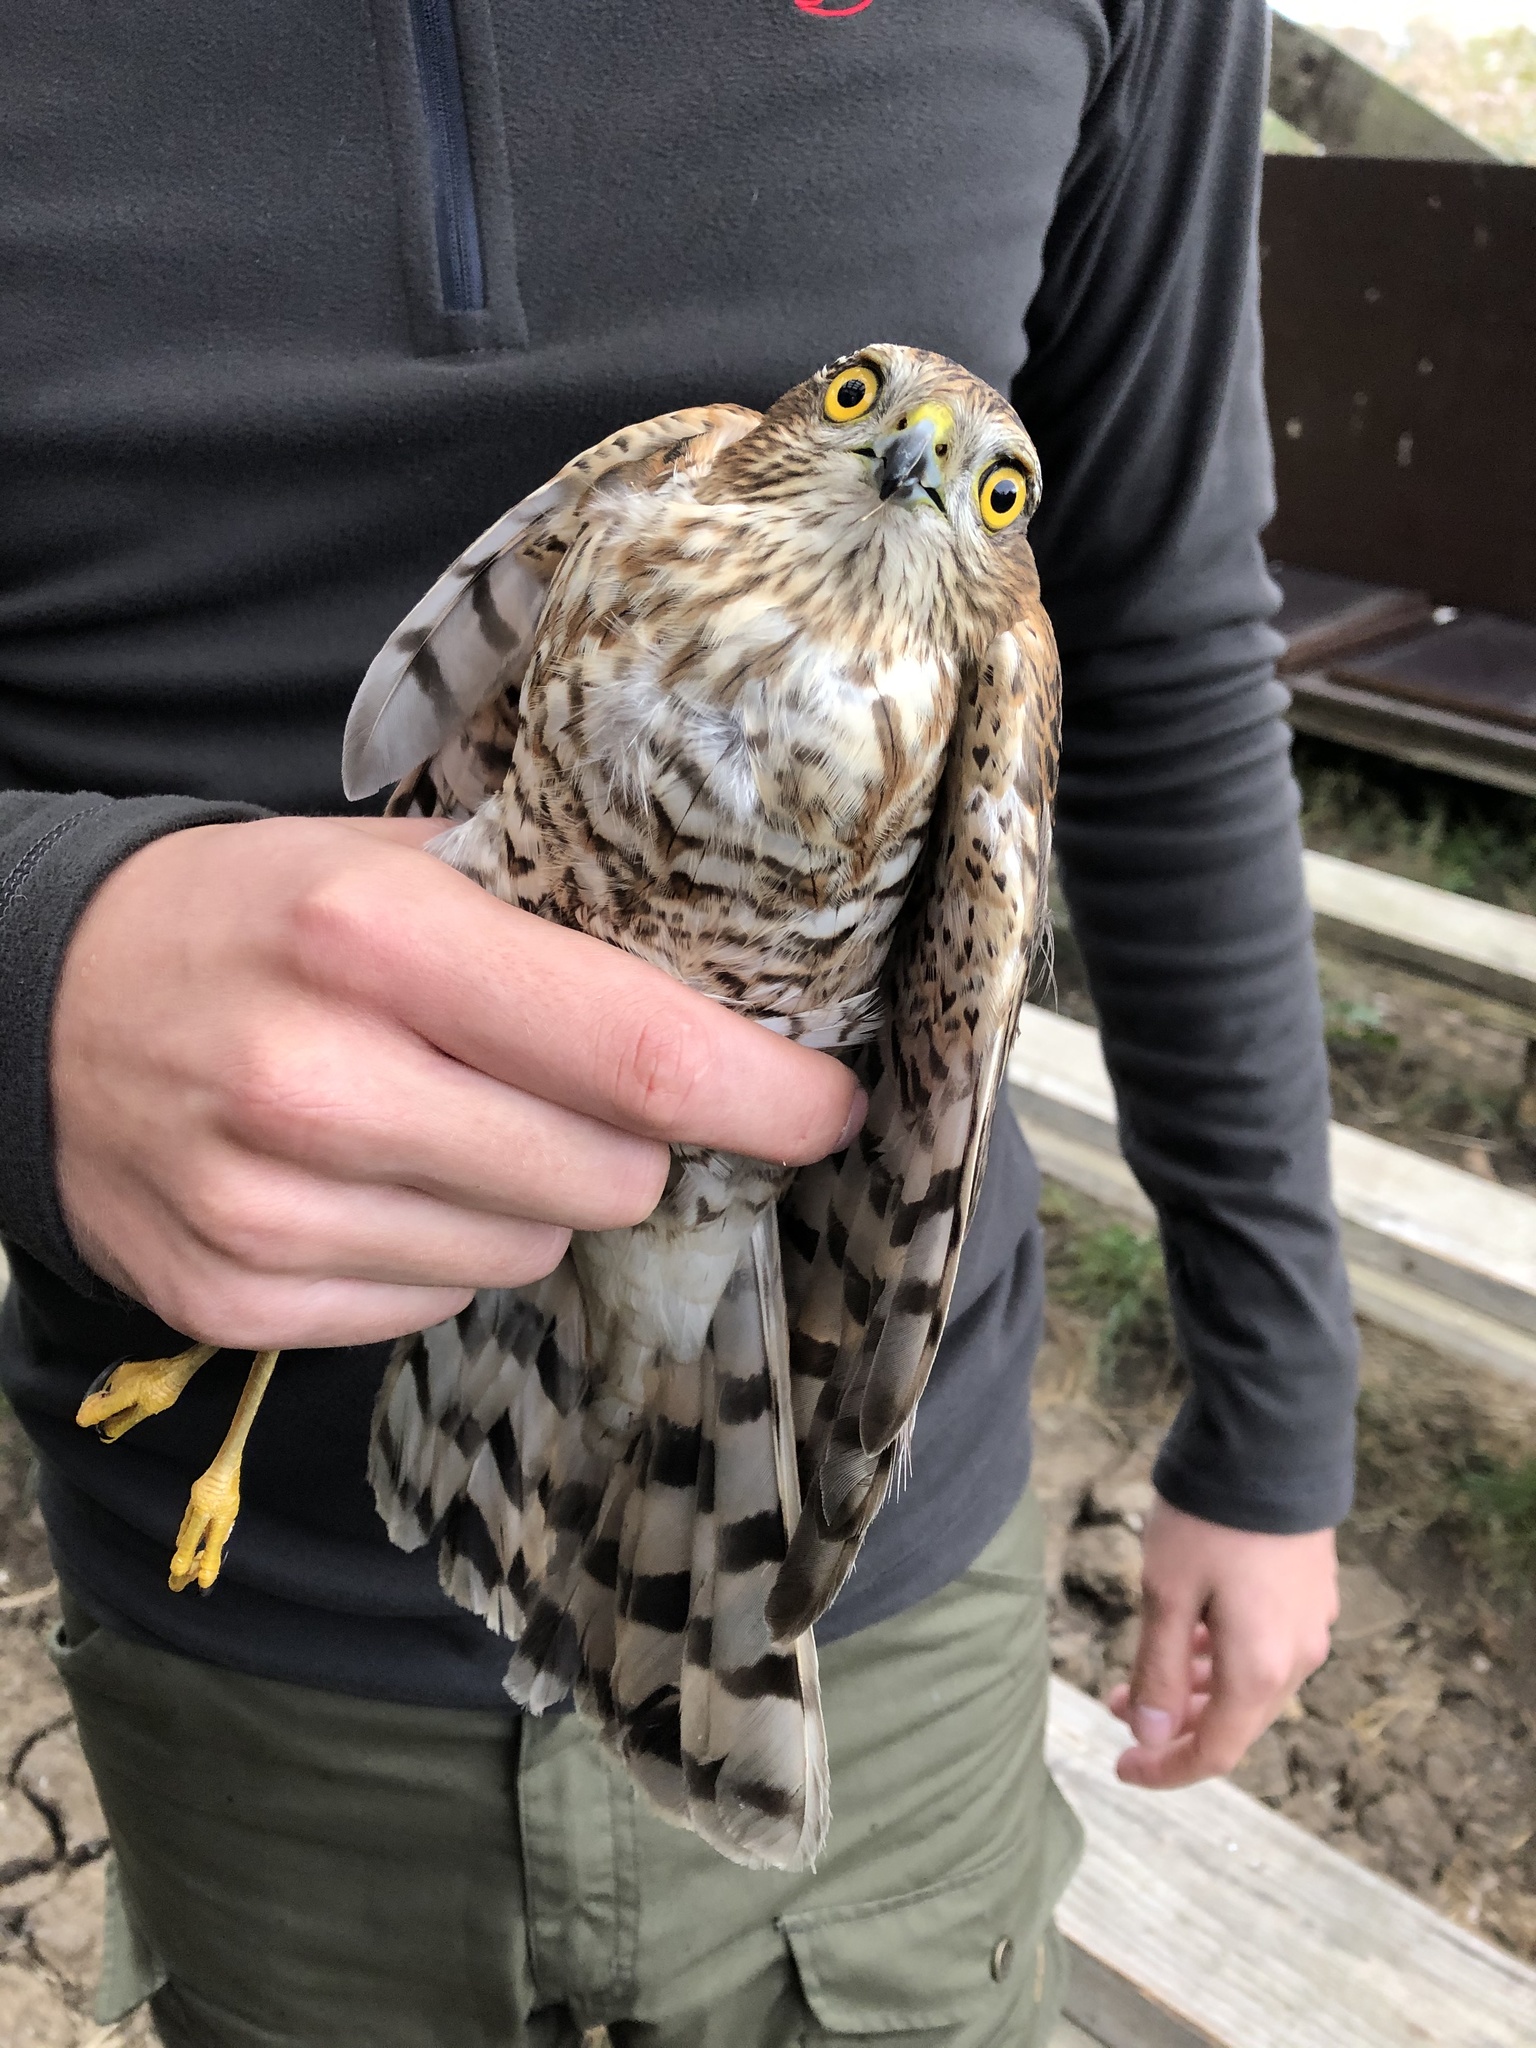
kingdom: Animalia
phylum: Chordata
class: Aves
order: Accipitriformes
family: Accipitridae
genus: Accipiter
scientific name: Accipiter nisus
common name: Eurasian sparrowhawk
